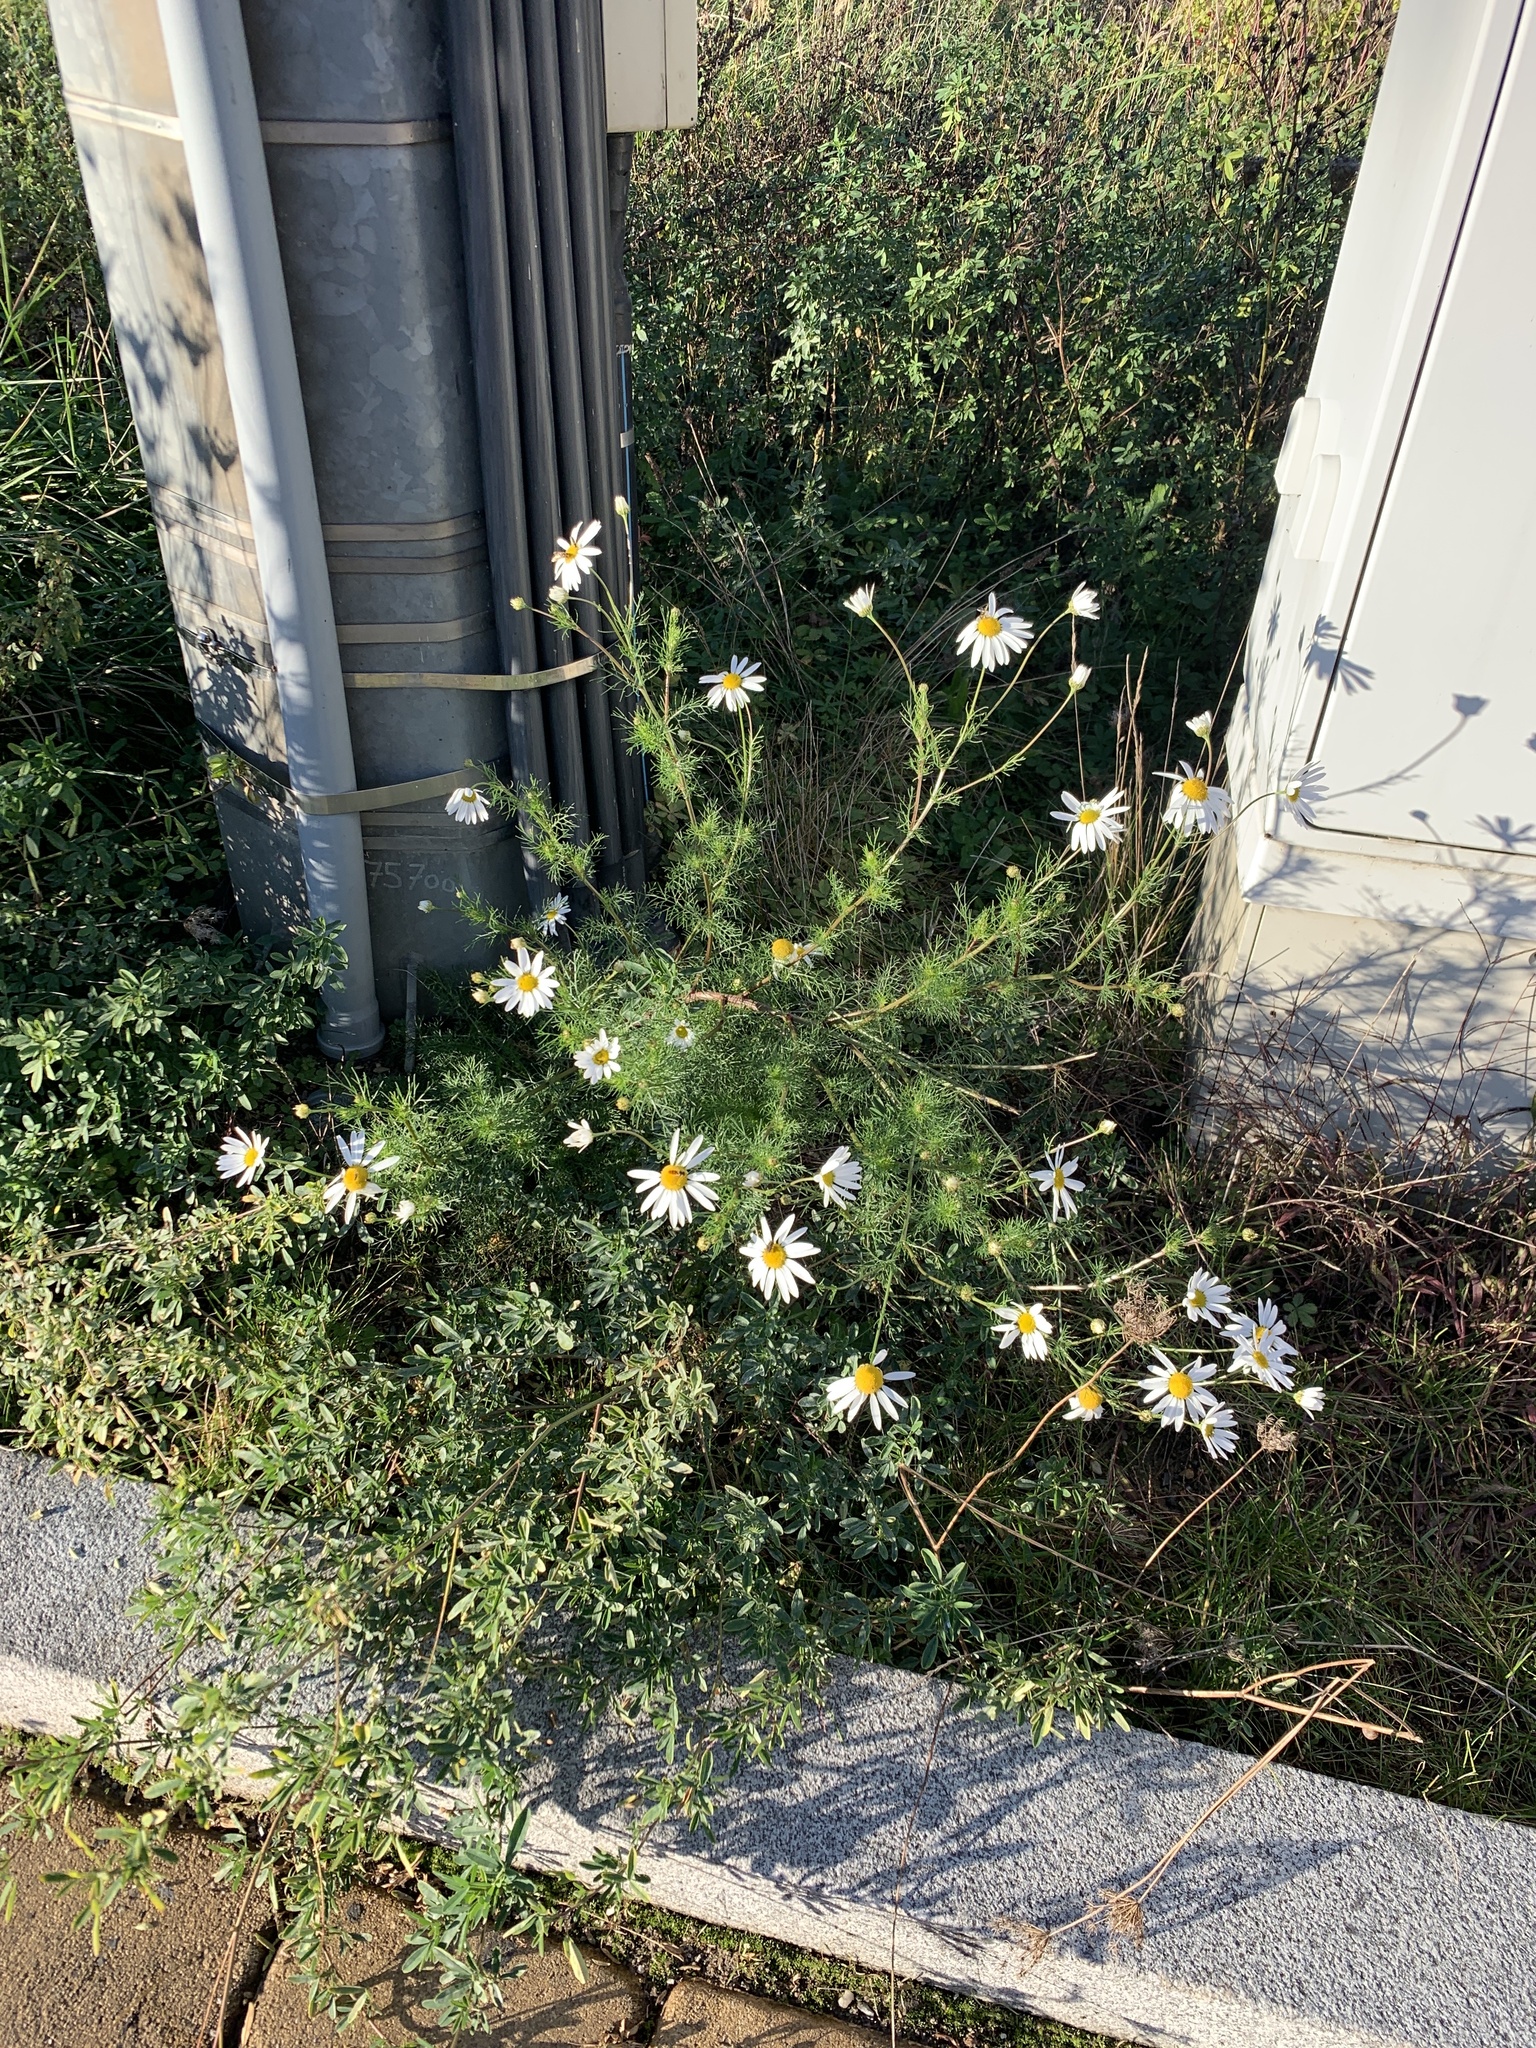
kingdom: Plantae
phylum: Tracheophyta
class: Magnoliopsida
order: Asterales
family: Asteraceae
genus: Tripleurospermum
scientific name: Tripleurospermum inodorum
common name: Scentless mayweed
